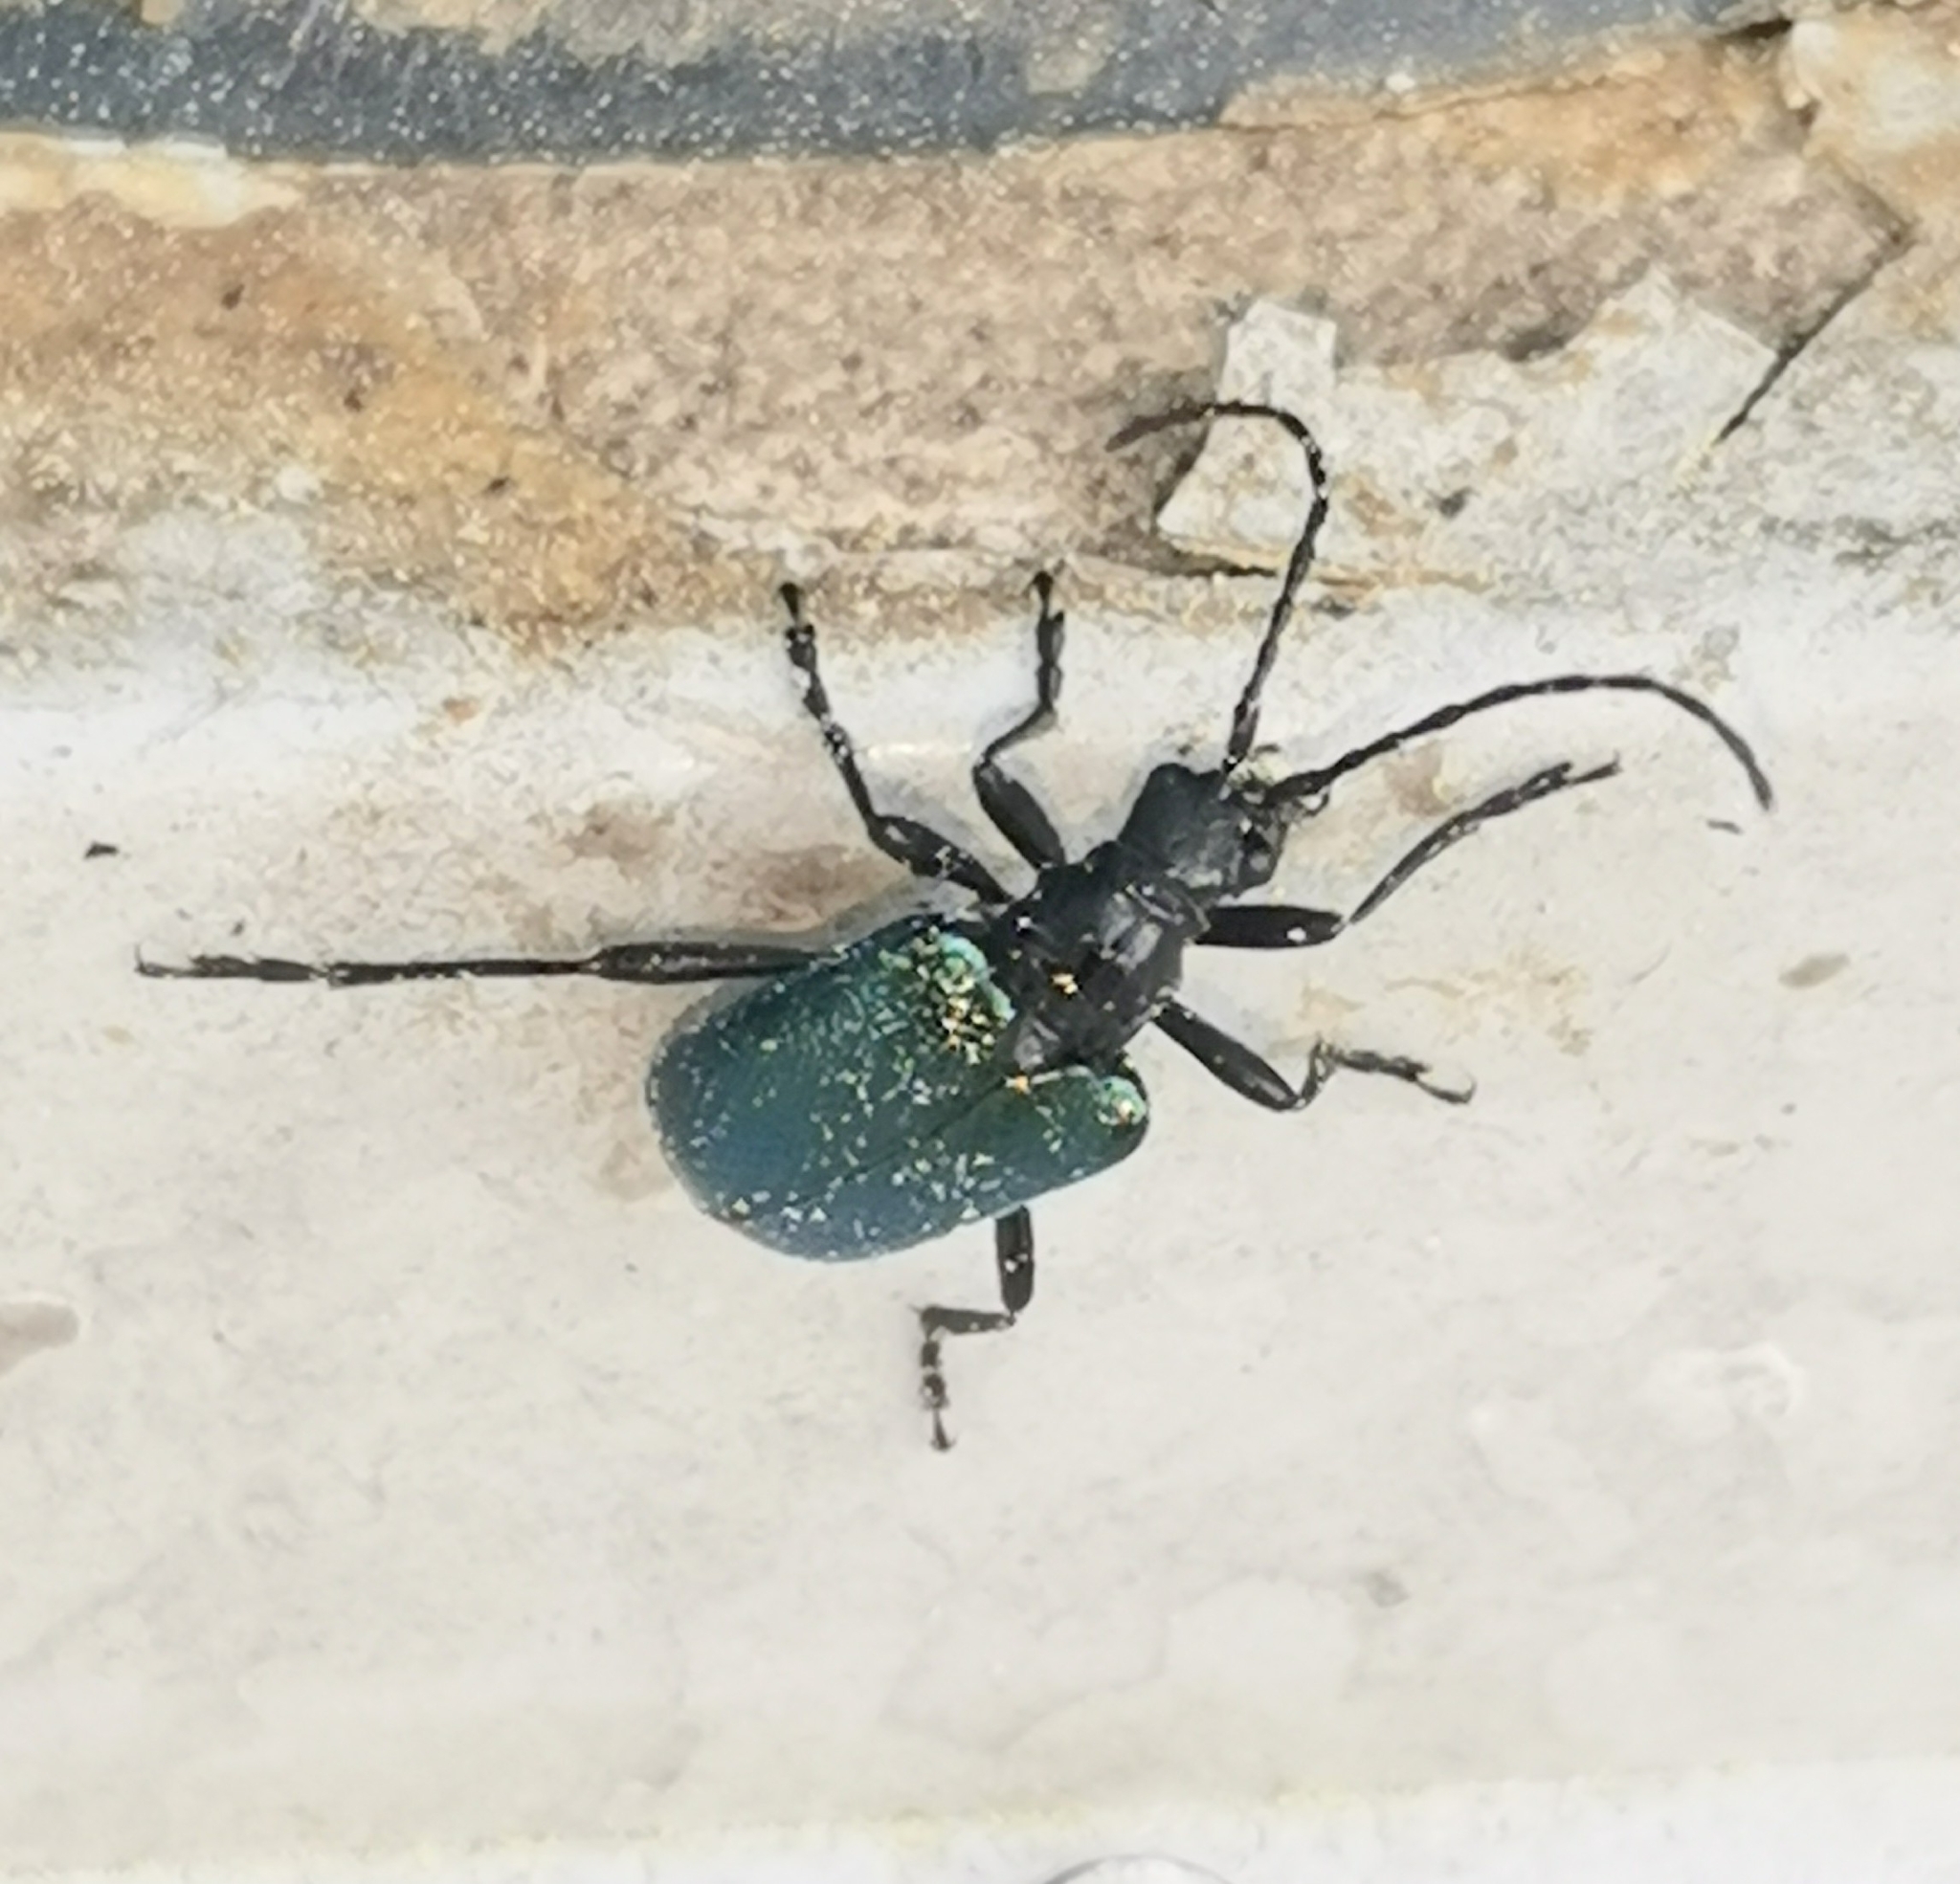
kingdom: Animalia
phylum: Arthropoda
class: Insecta
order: Coleoptera
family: Cerambycidae
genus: Gaurotes
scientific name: Gaurotes virginea
